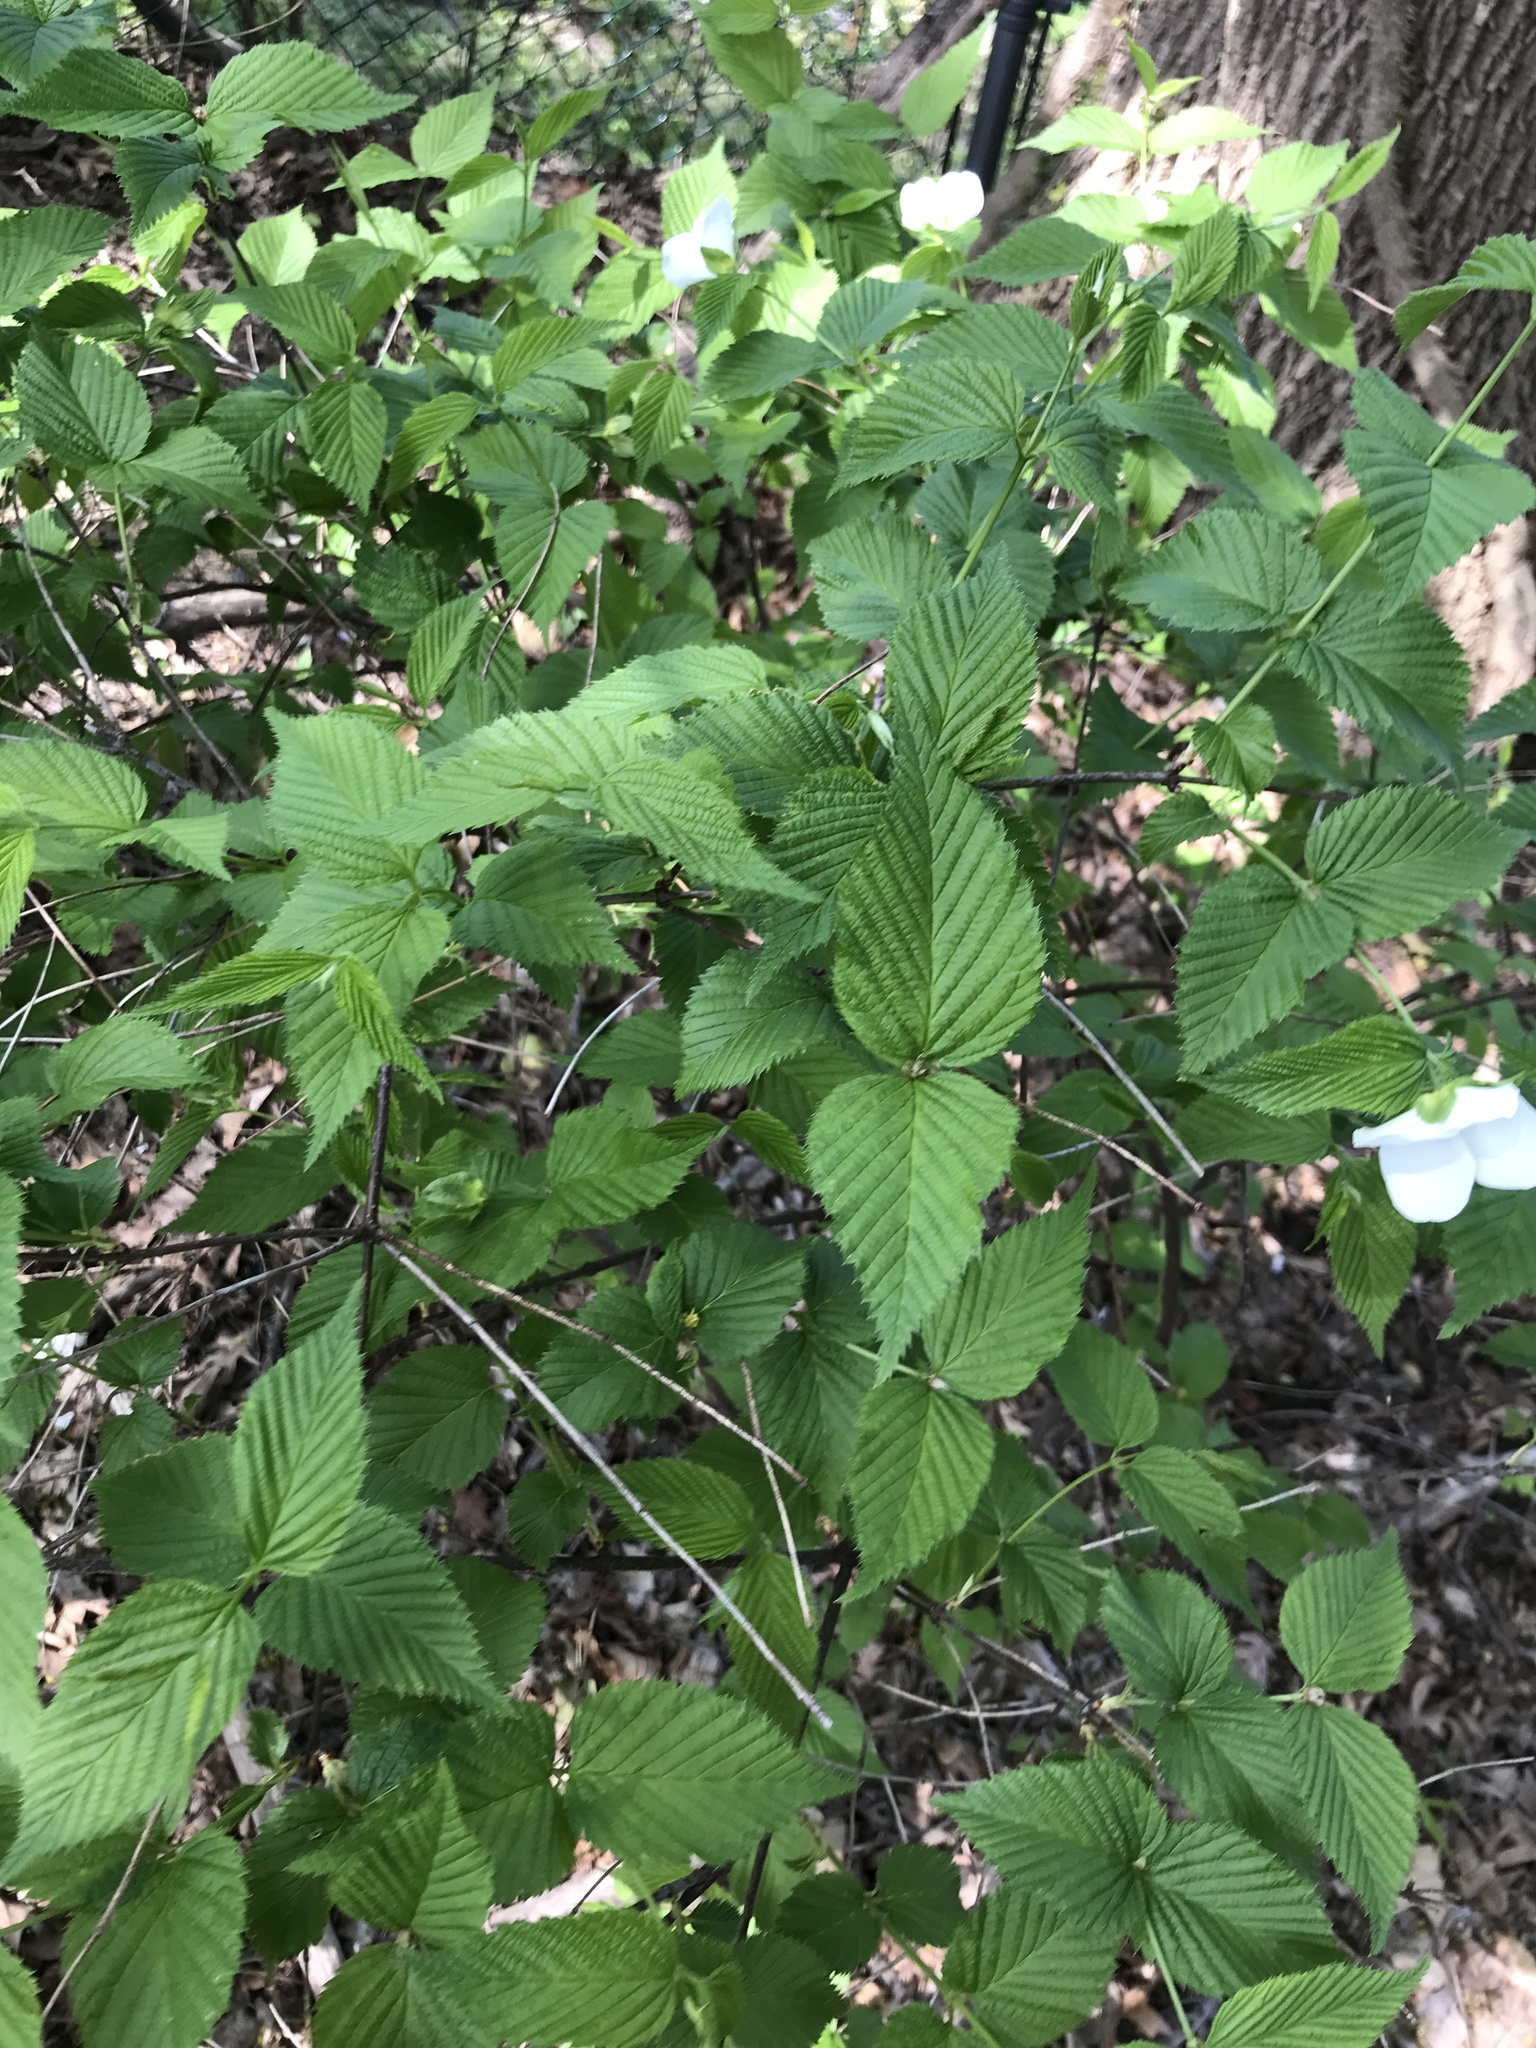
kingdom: Plantae
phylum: Tracheophyta
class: Magnoliopsida
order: Rosales
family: Rosaceae
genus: Rhodotypos
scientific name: Rhodotypos scandens
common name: Jetbead
